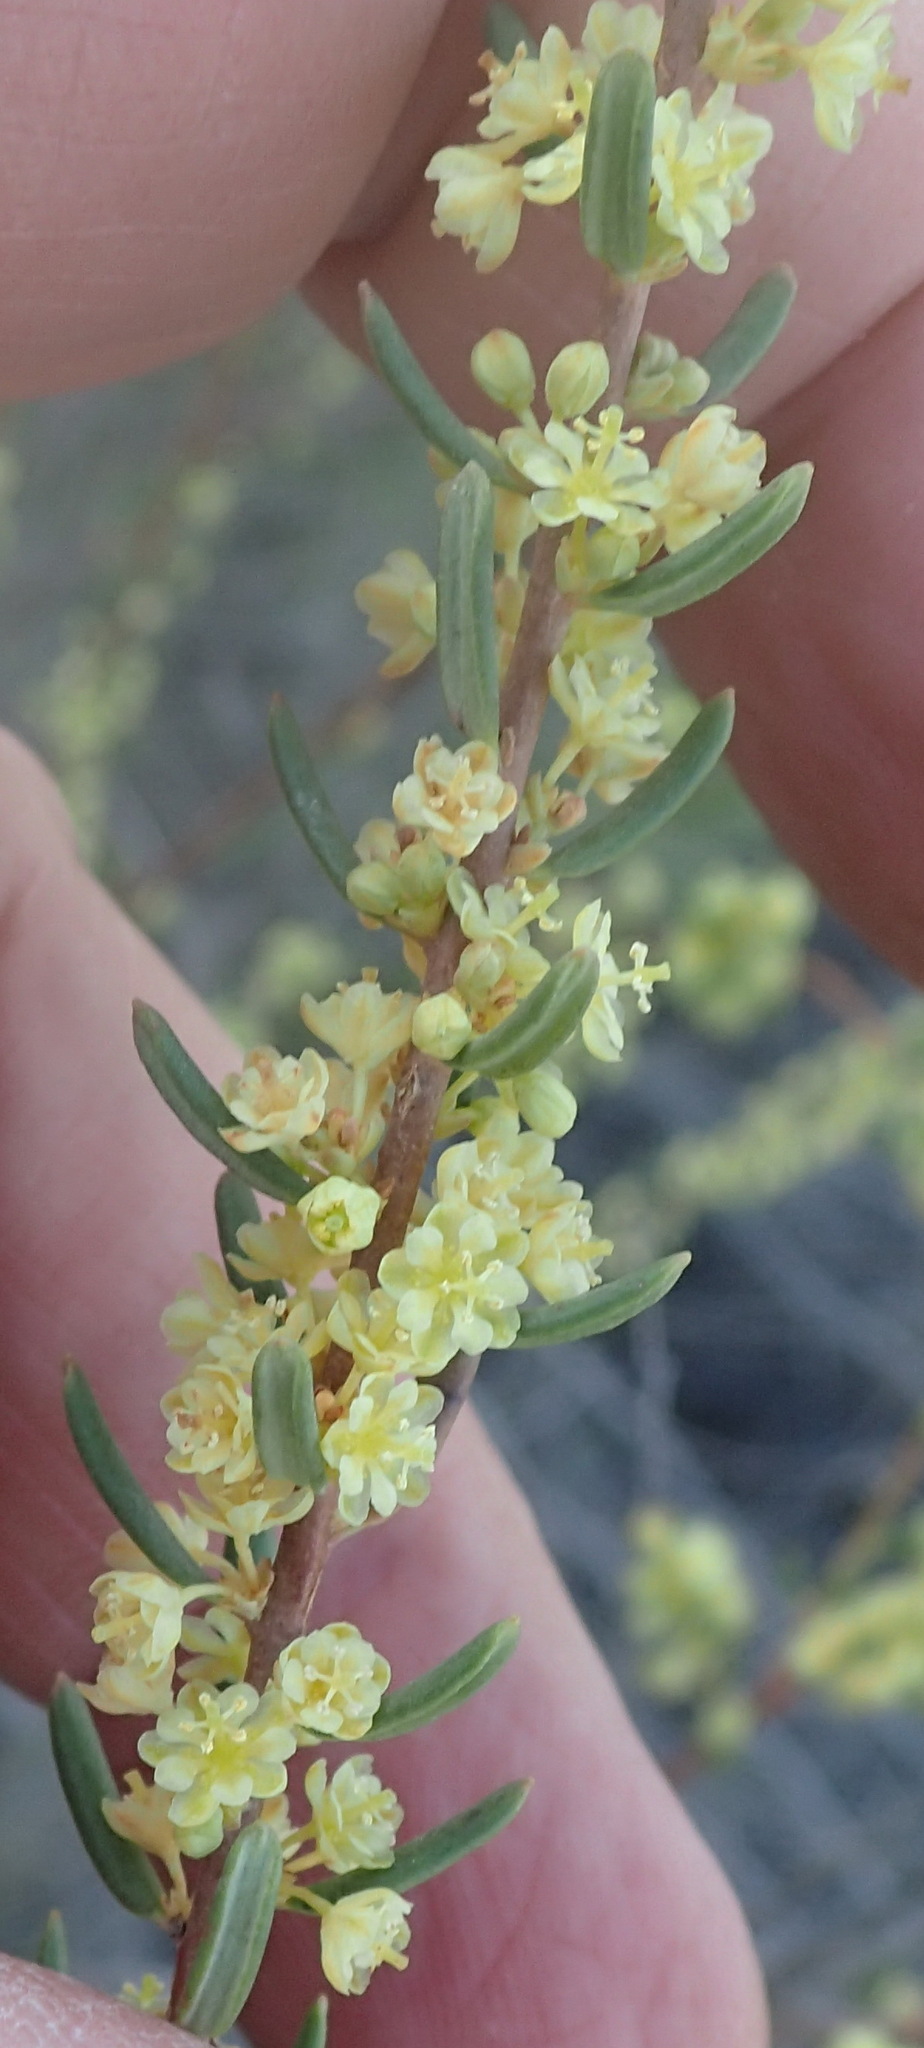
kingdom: Plantae
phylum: Tracheophyta
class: Magnoliopsida
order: Malpighiales
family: Peraceae
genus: Clutia
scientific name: Clutia polifolia
